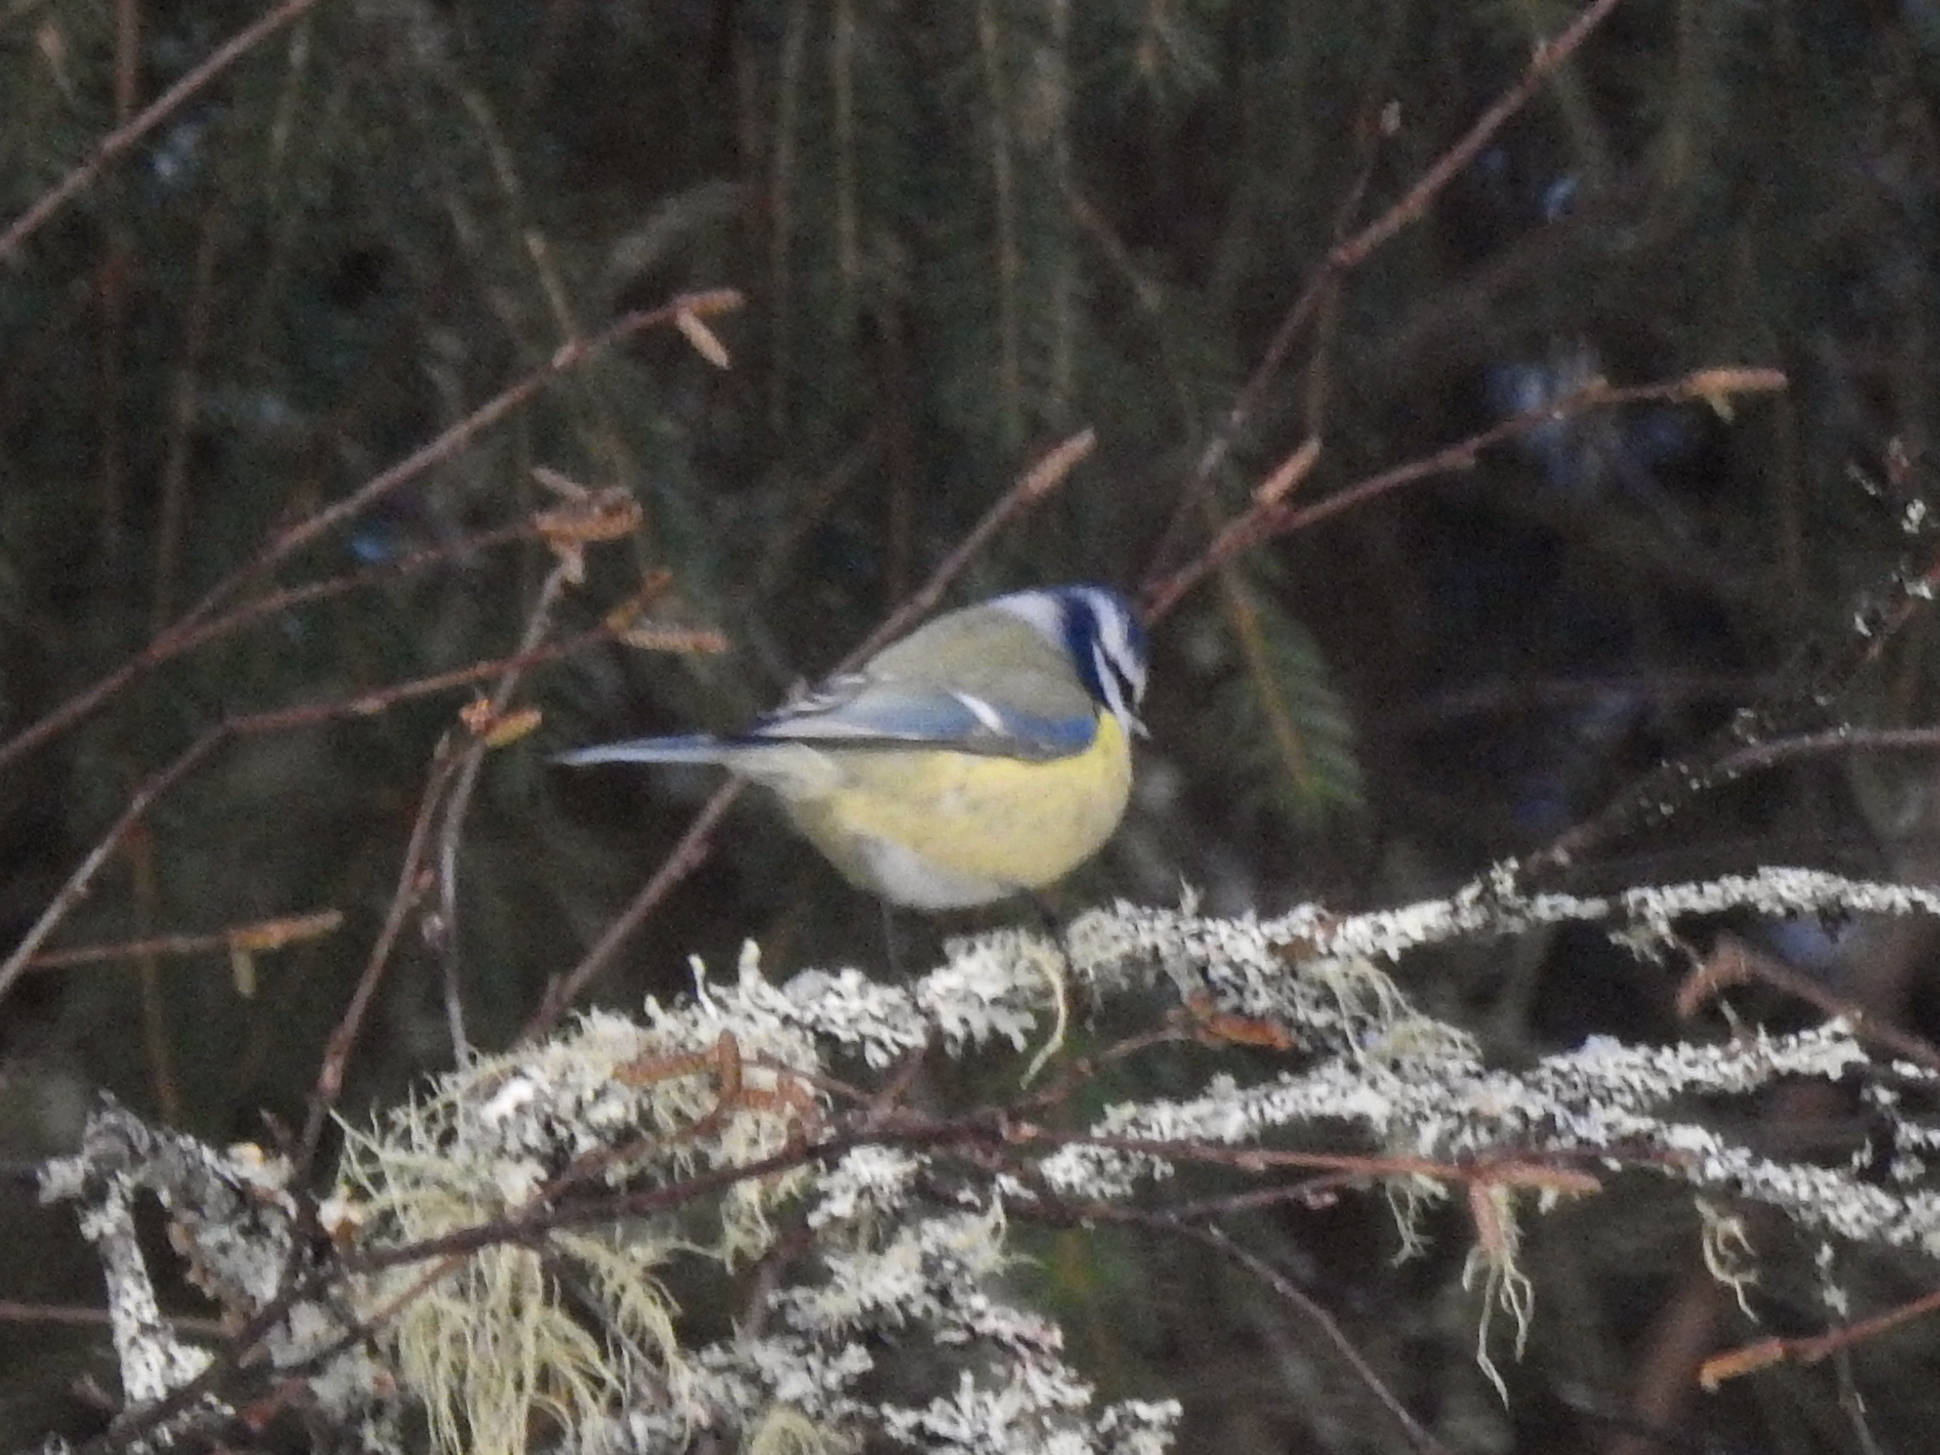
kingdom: Animalia
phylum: Chordata
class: Aves
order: Passeriformes
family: Paridae
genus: Cyanistes
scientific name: Cyanistes caeruleus
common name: Eurasian blue tit
